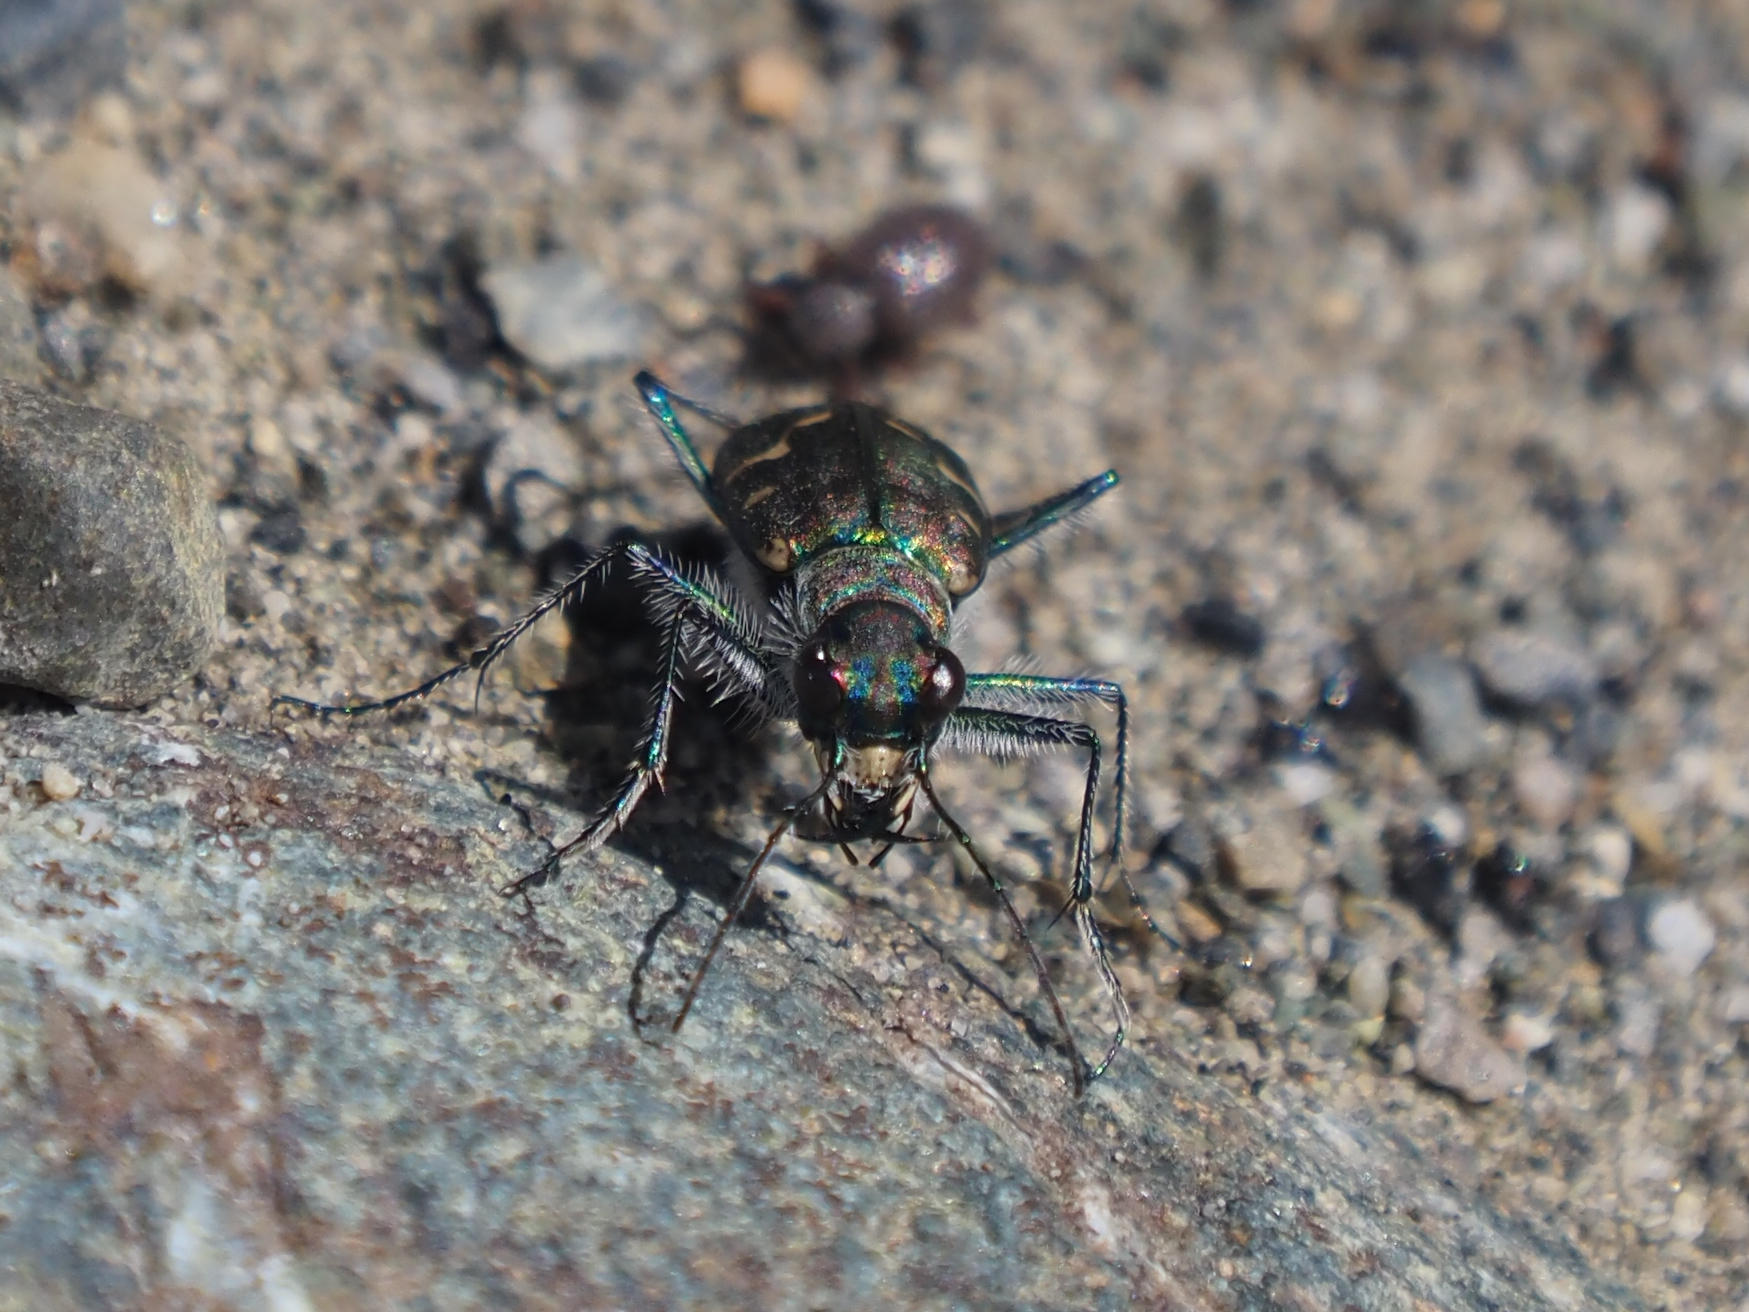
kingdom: Animalia
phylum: Arthropoda
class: Insecta
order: Coleoptera
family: Carabidae
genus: Cicindela
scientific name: Cicindela oregona
